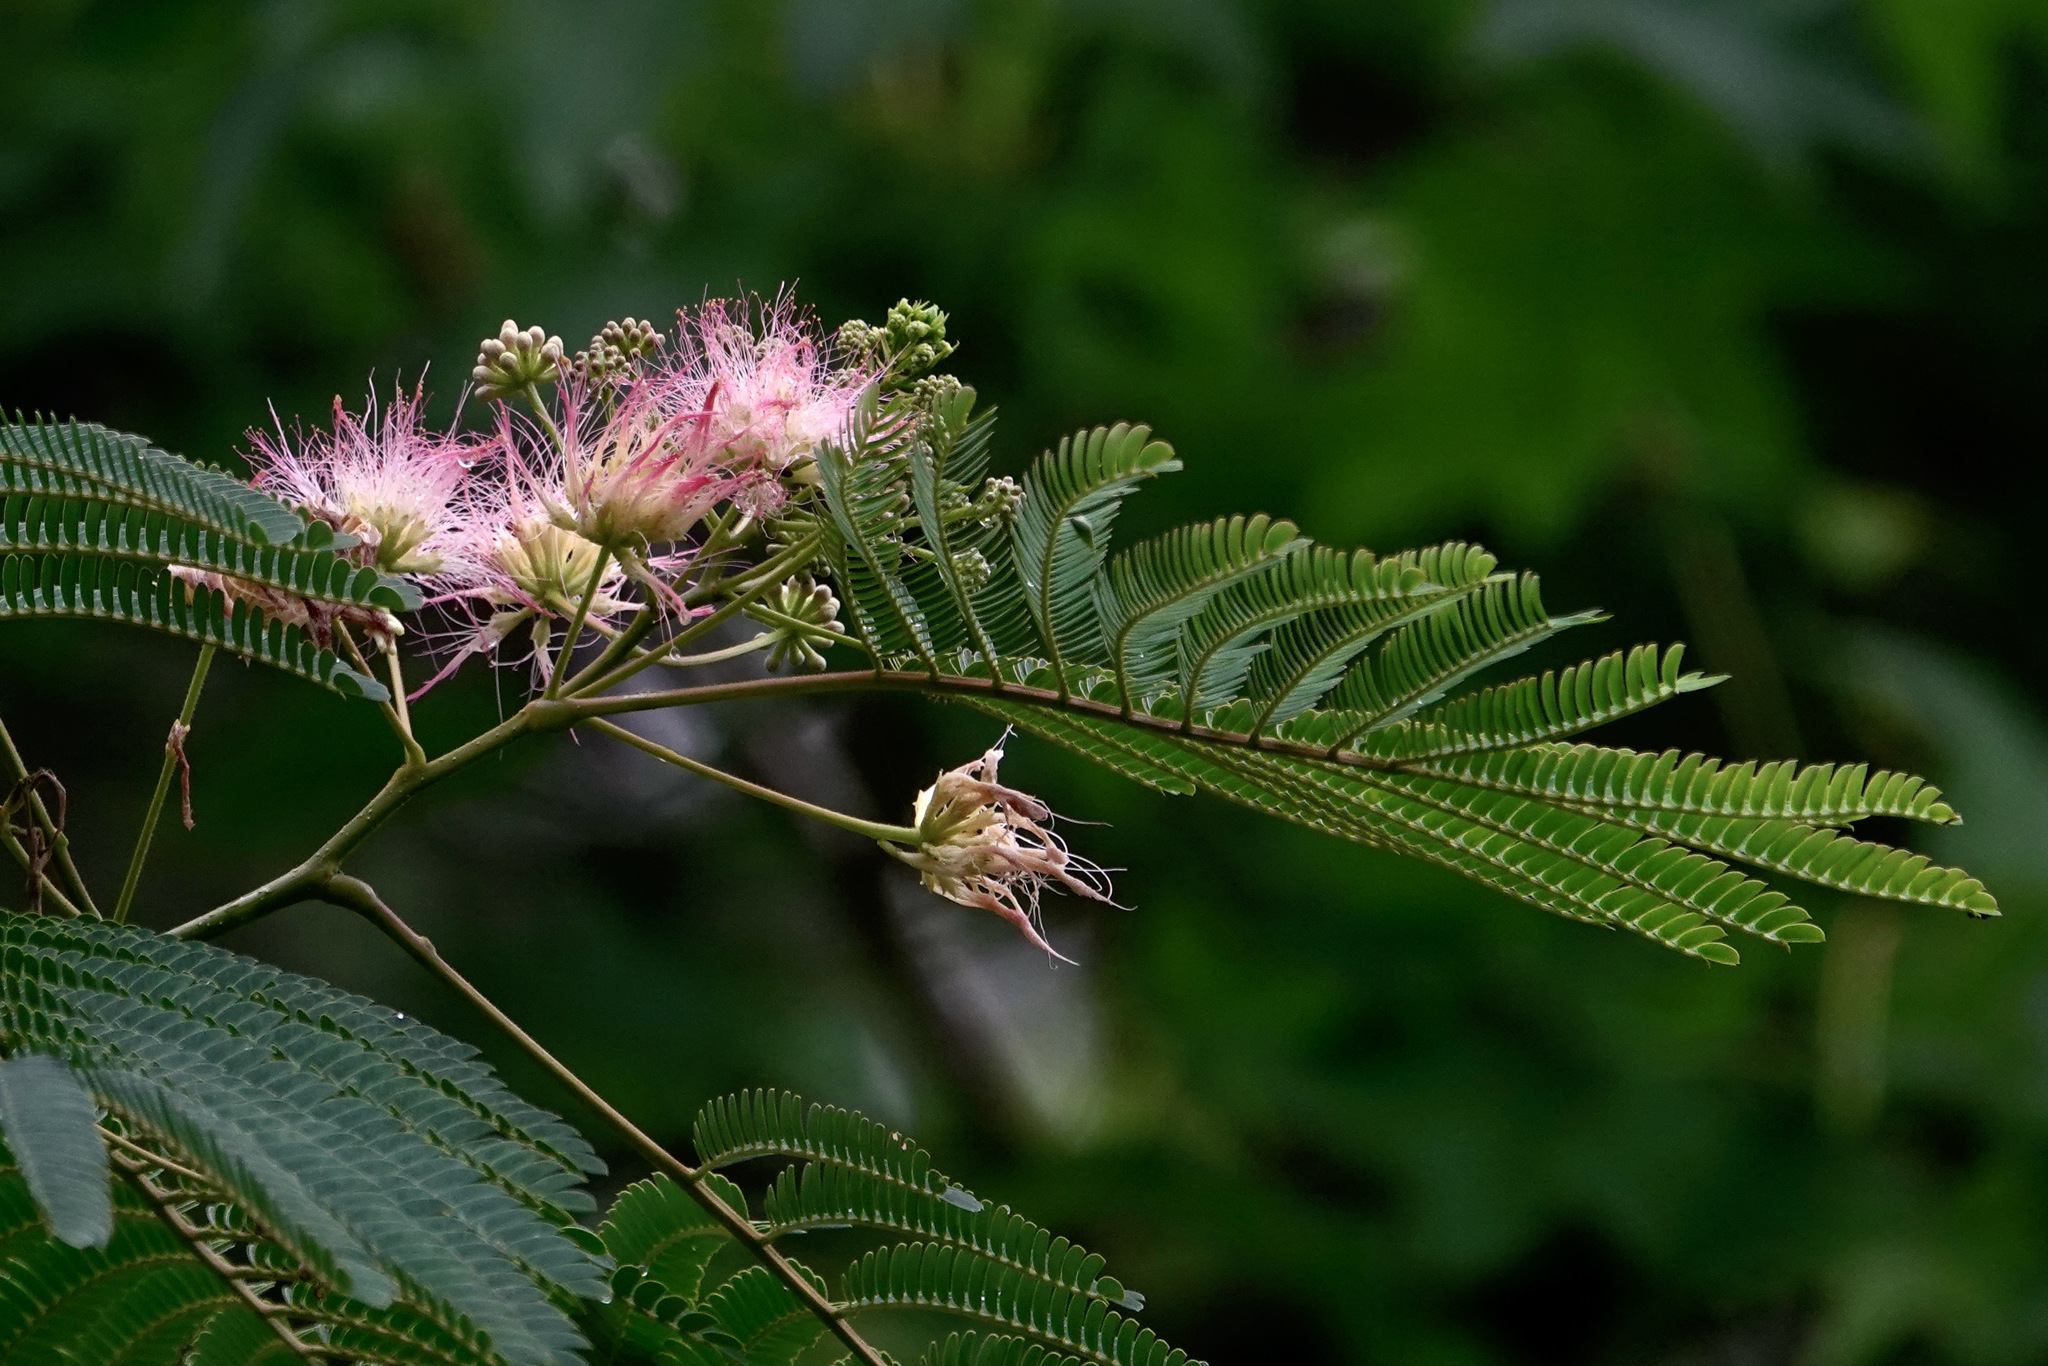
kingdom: Plantae
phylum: Tracheophyta
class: Magnoliopsida
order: Fabales
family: Fabaceae
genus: Albizia
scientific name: Albizia julibrissin
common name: Silktree
